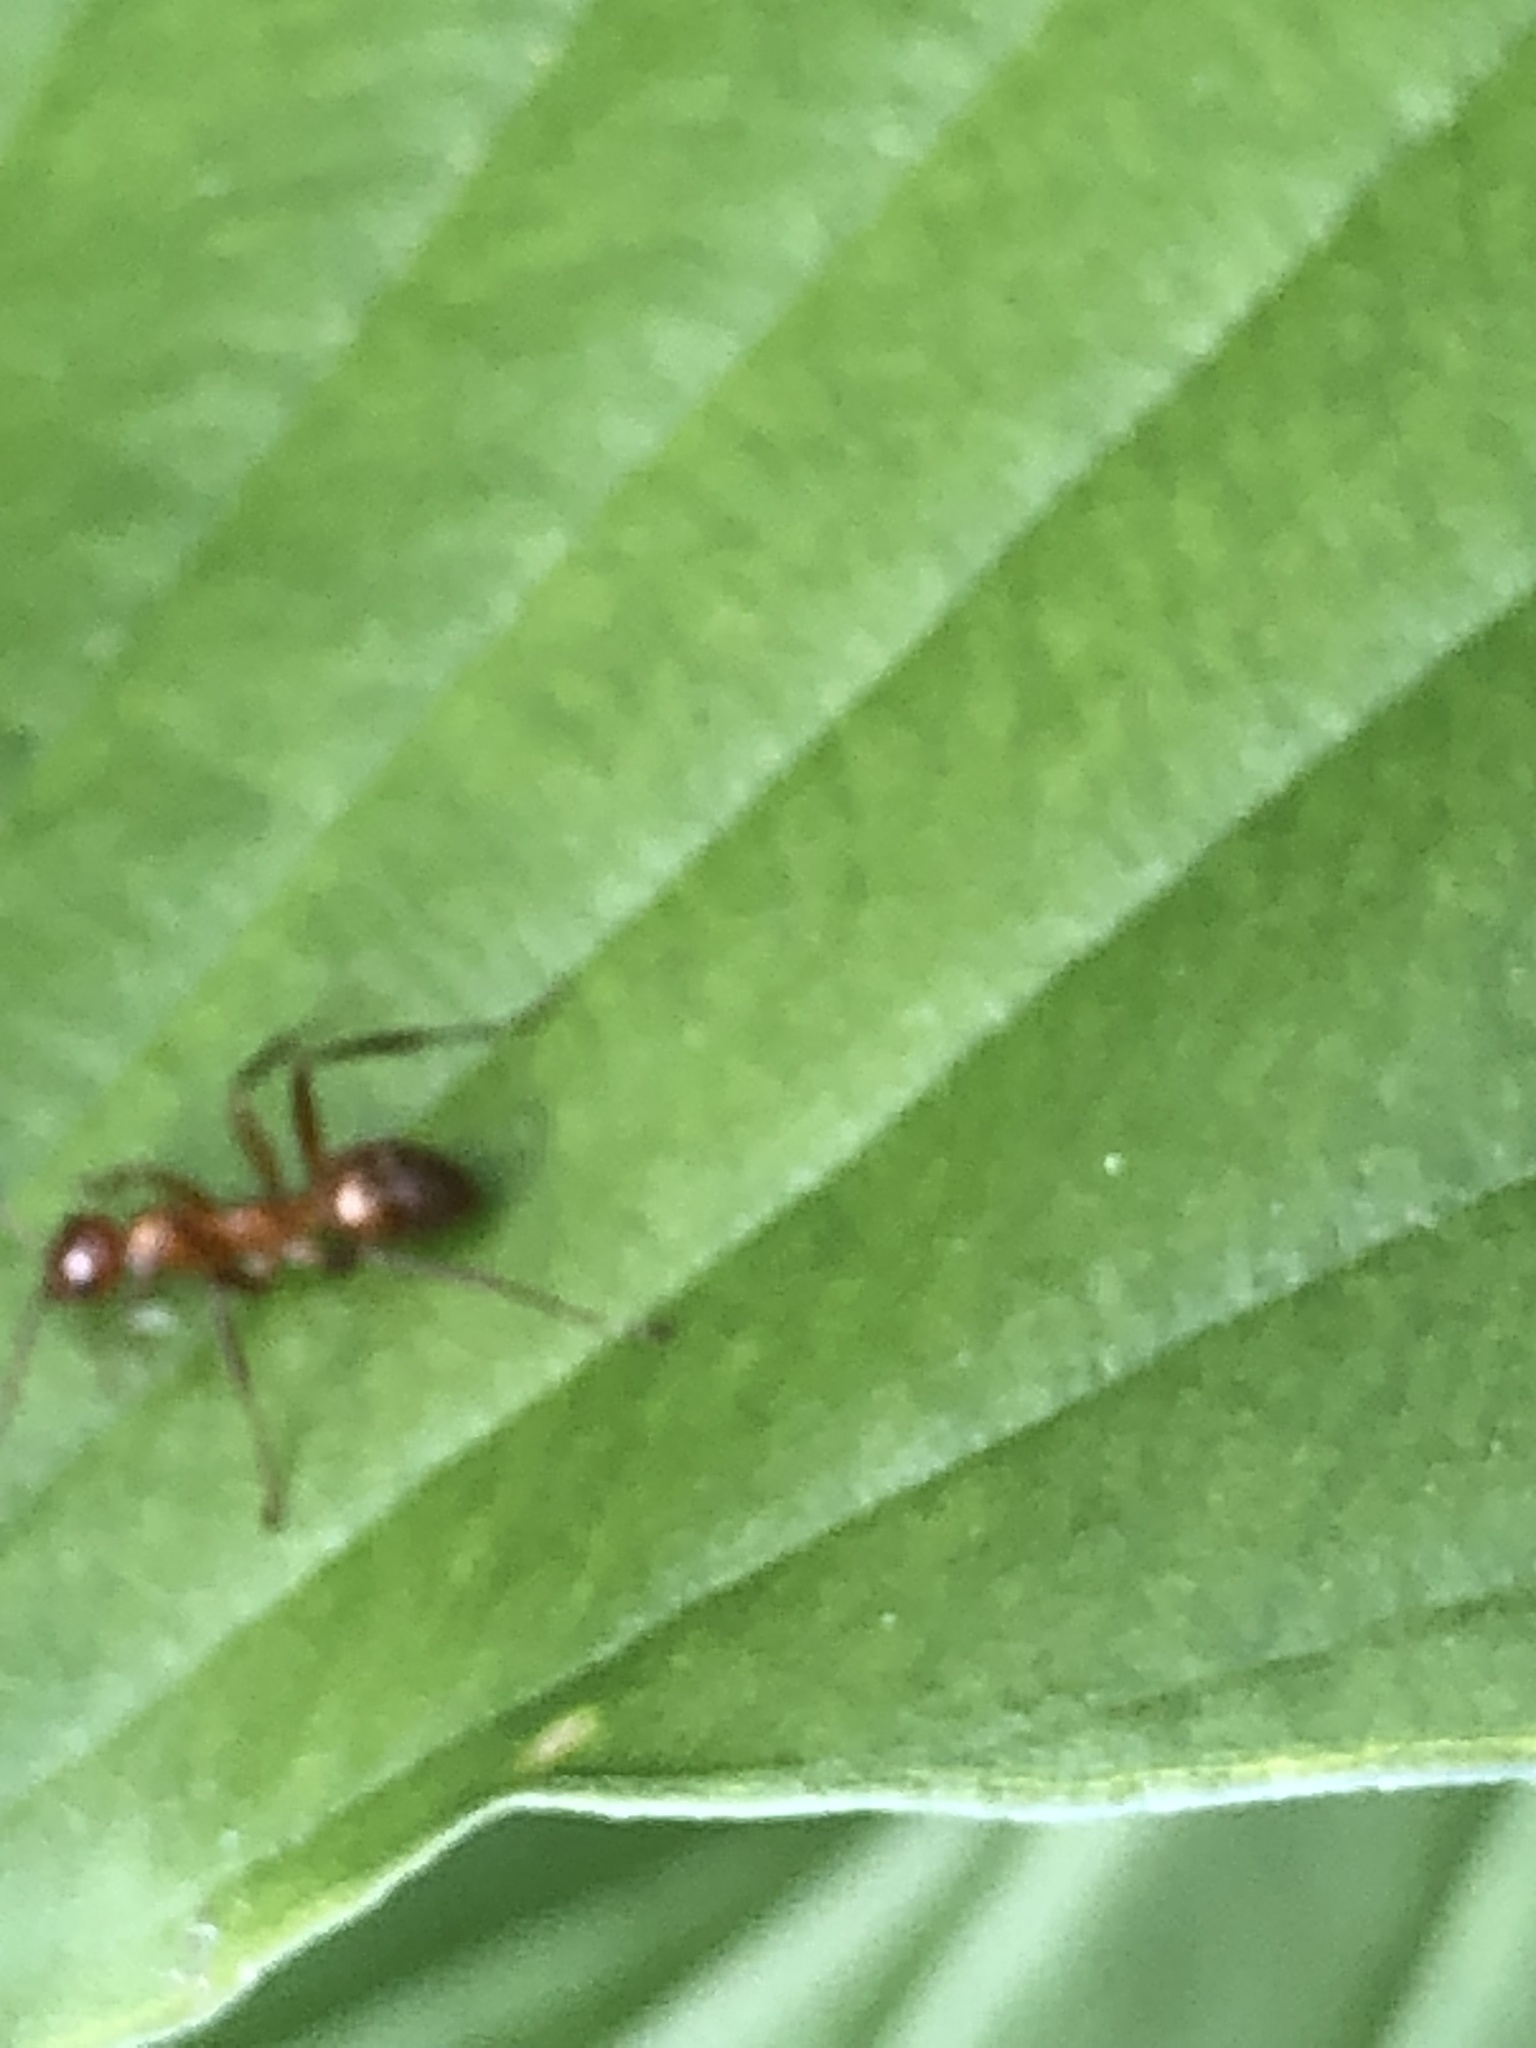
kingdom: Animalia
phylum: Arthropoda
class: Insecta
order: Hymenoptera
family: Formicidae
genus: Formica
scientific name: Formica
